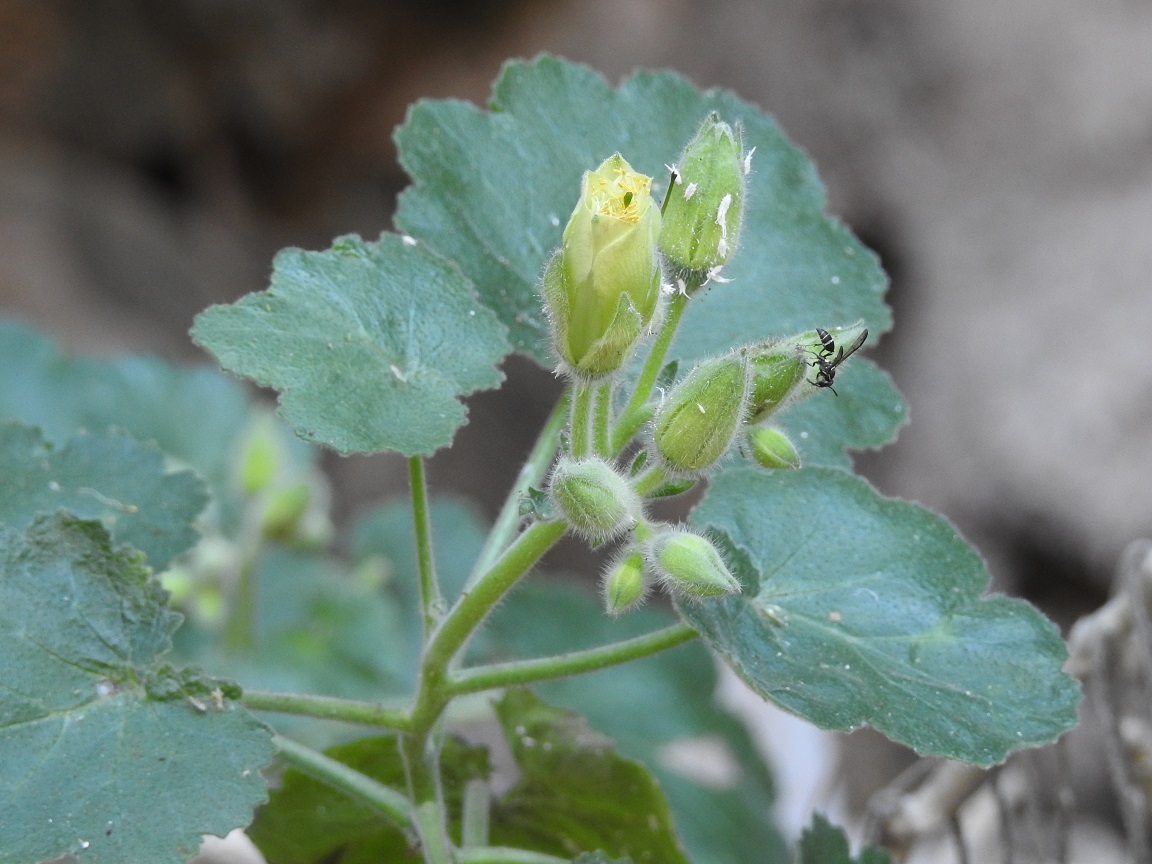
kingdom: Plantae
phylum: Tracheophyta
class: Magnoliopsida
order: Cornales
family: Loasaceae
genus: Eucnide
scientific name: Eucnide hirta
